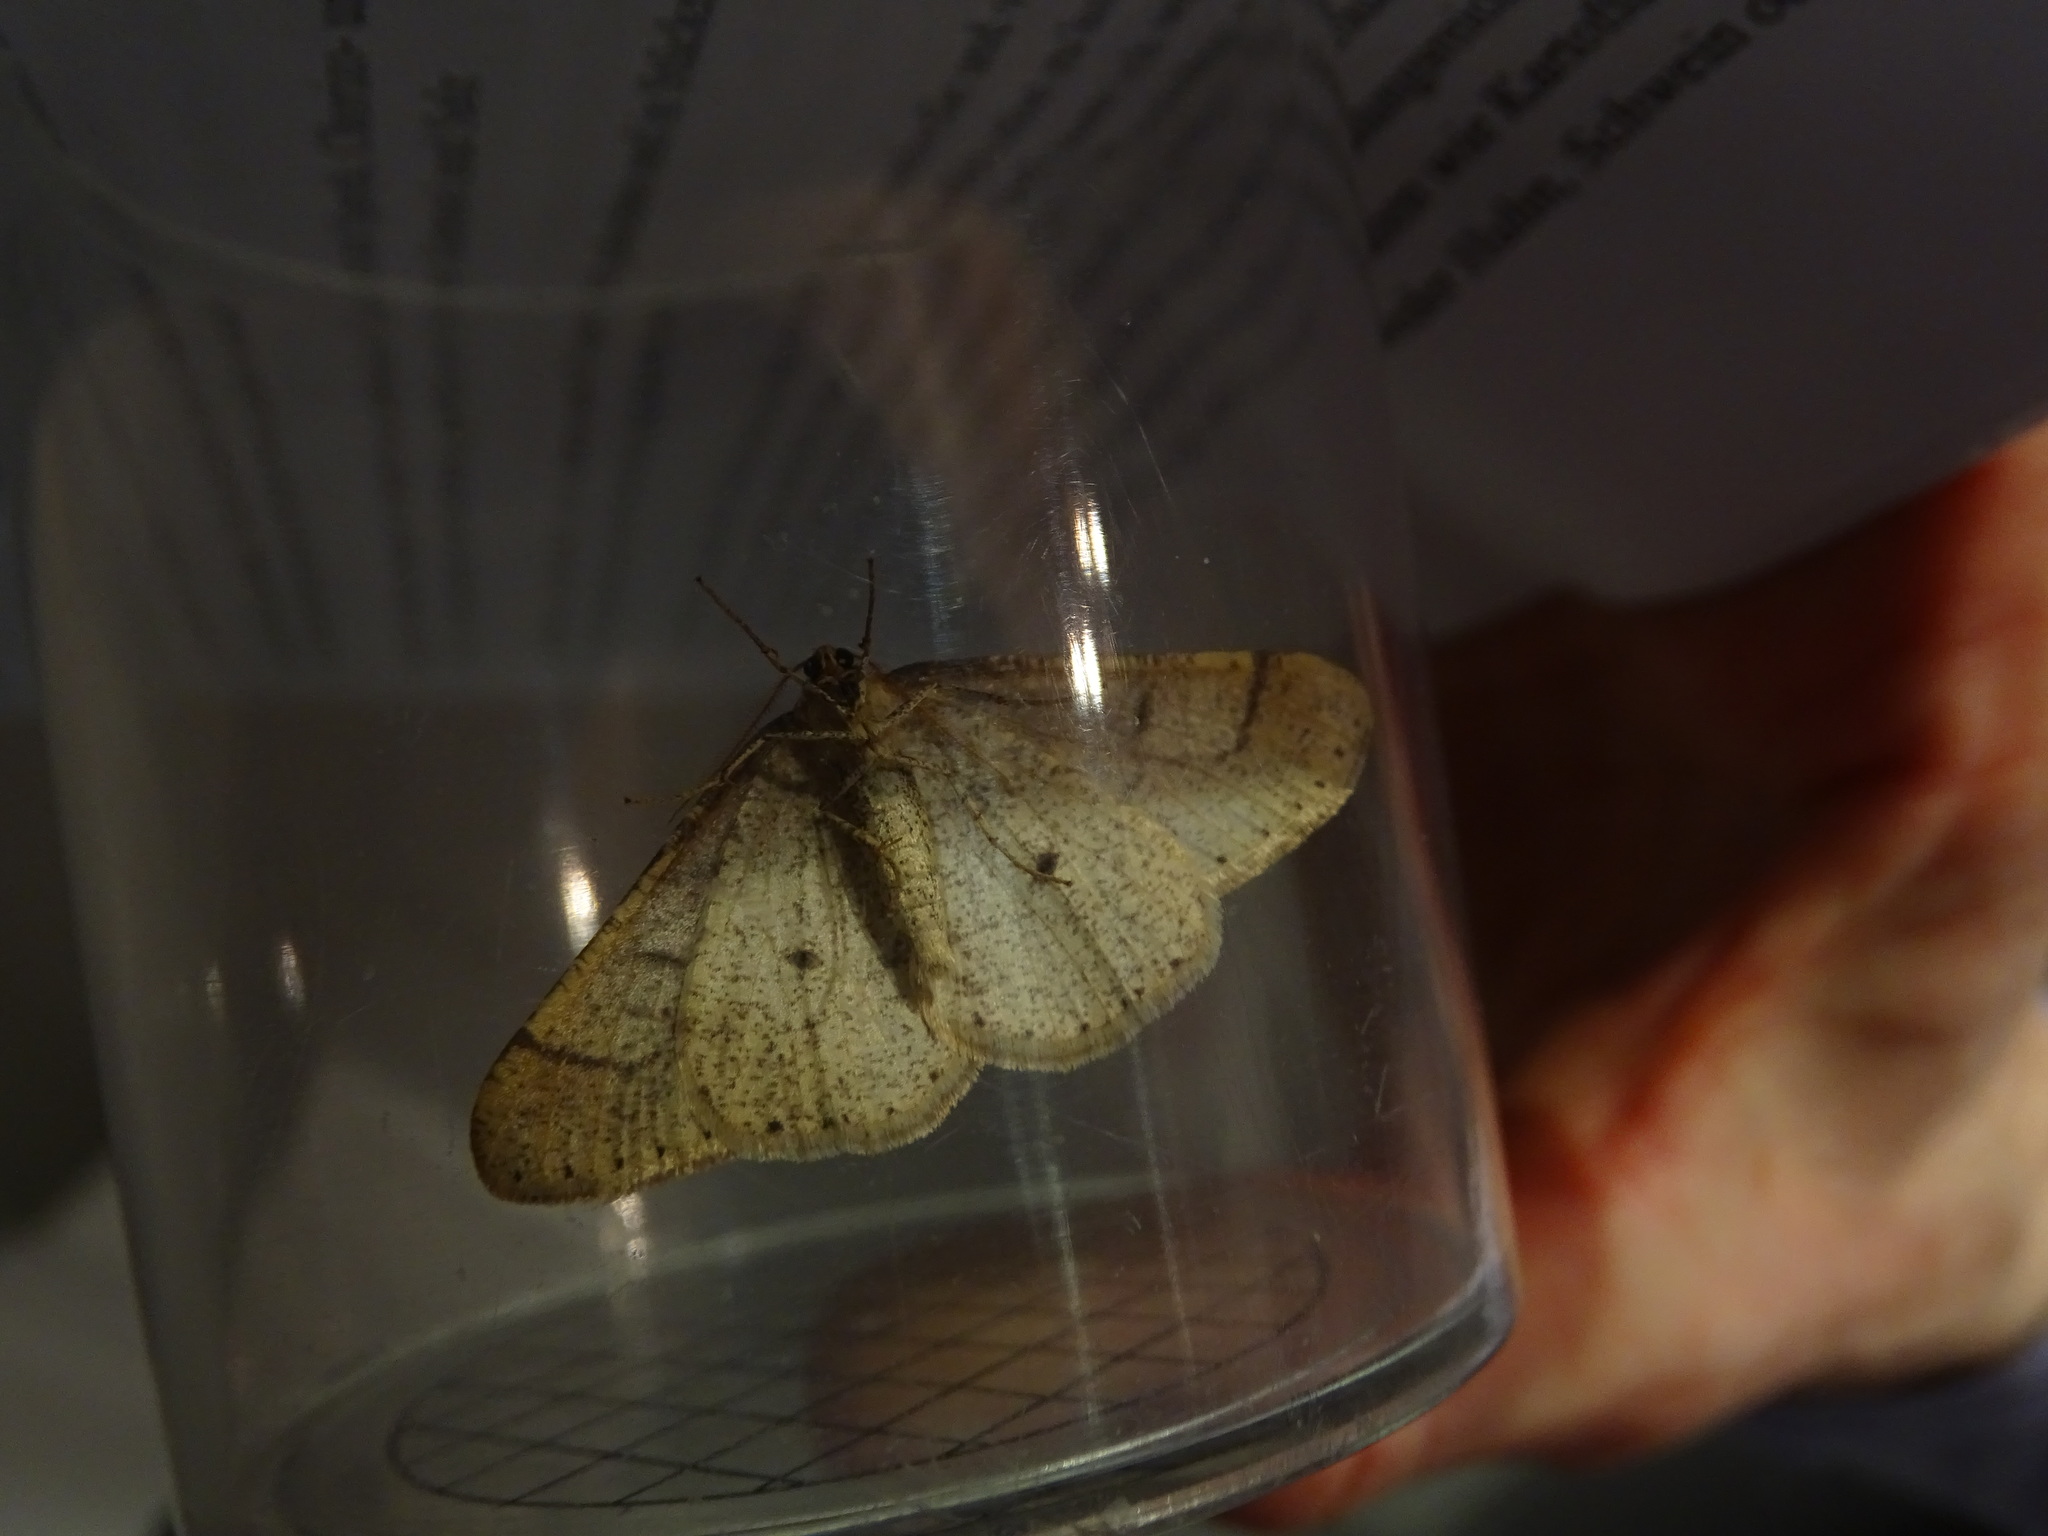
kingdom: Animalia
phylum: Arthropoda
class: Insecta
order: Lepidoptera
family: Geometridae
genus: Agriopis
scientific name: Agriopis marginaria
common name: Dotted border
